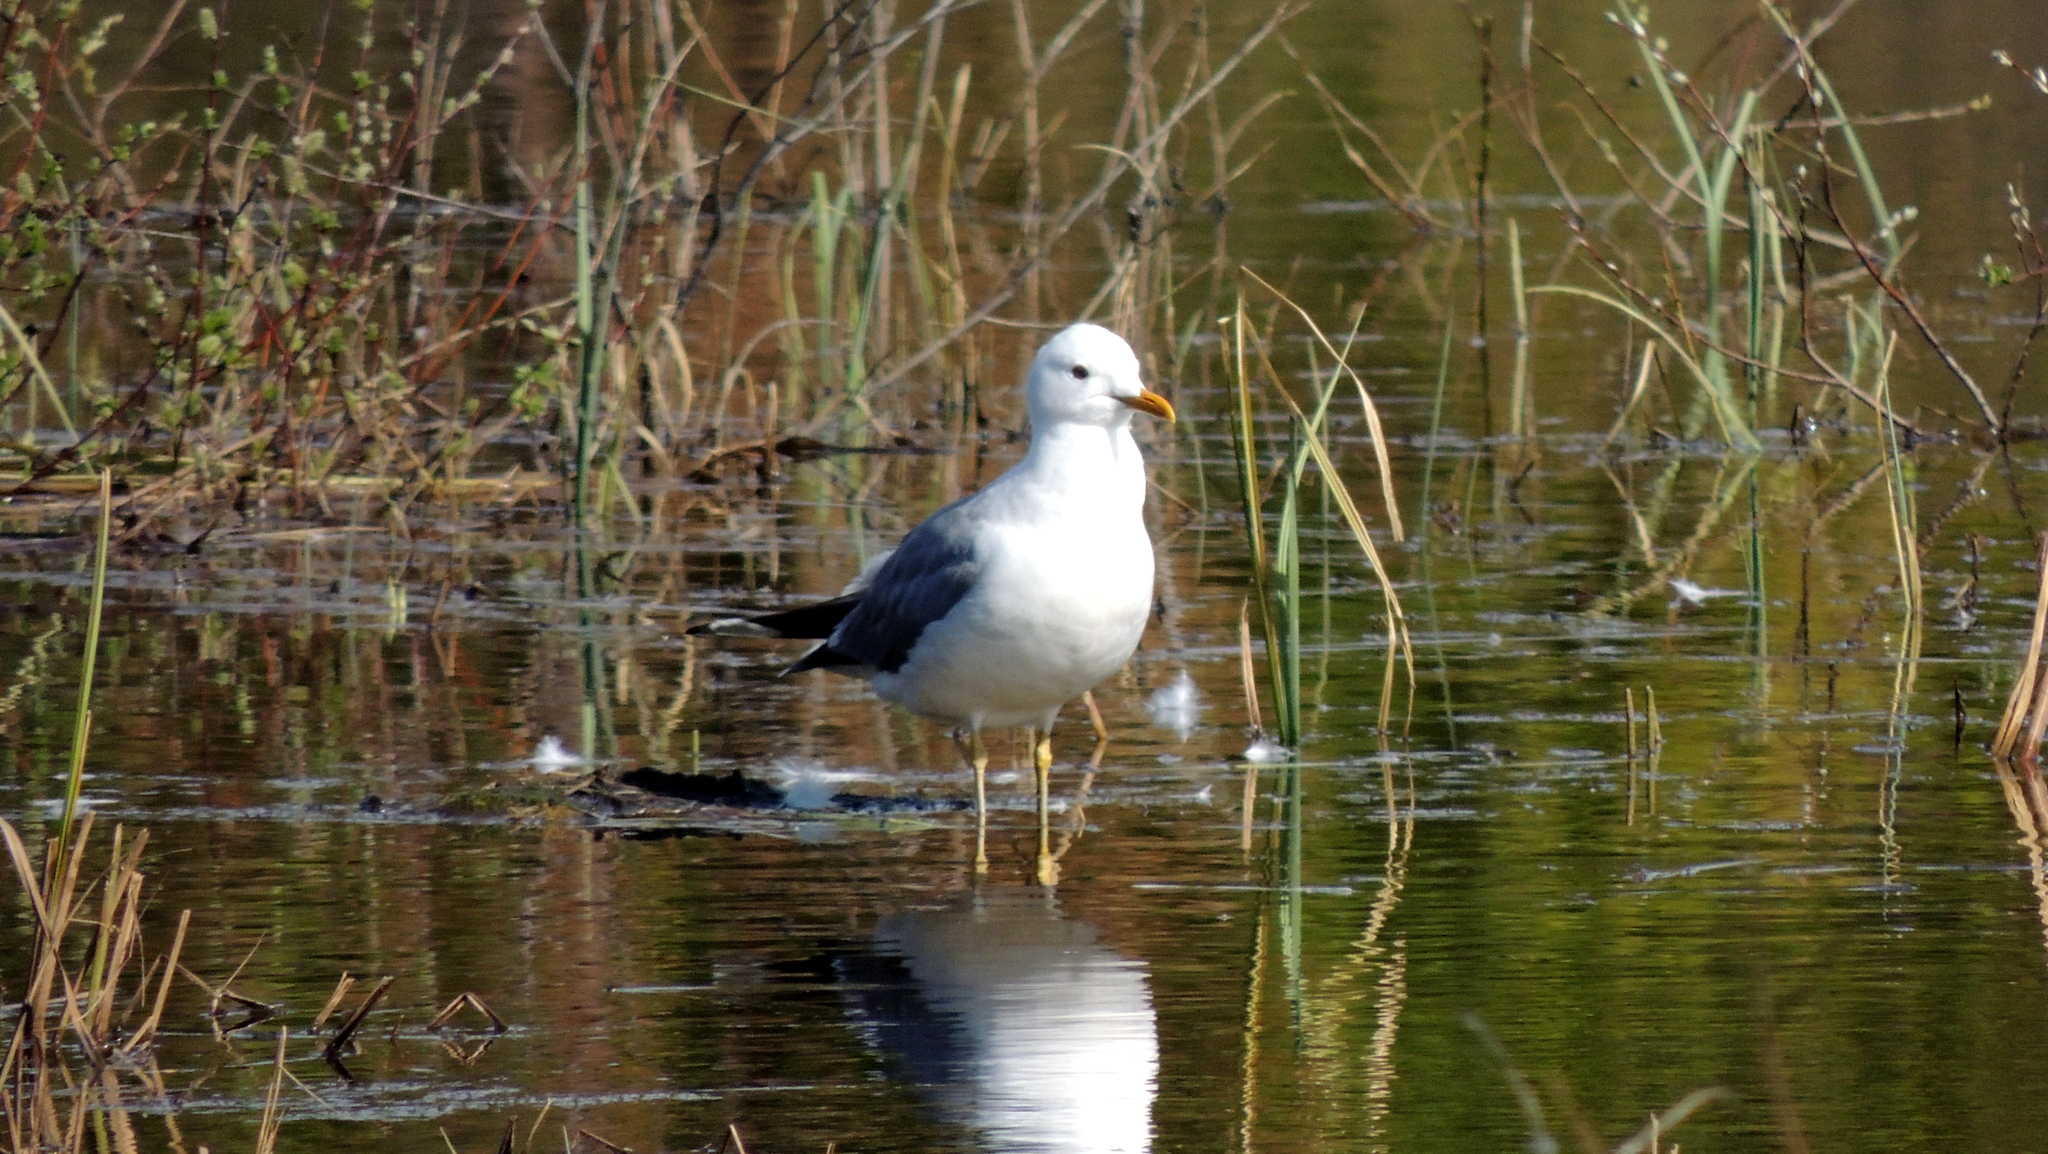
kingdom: Animalia
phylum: Chordata
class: Aves
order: Charadriiformes
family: Laridae
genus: Larus
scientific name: Larus canus
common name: Mew gull
